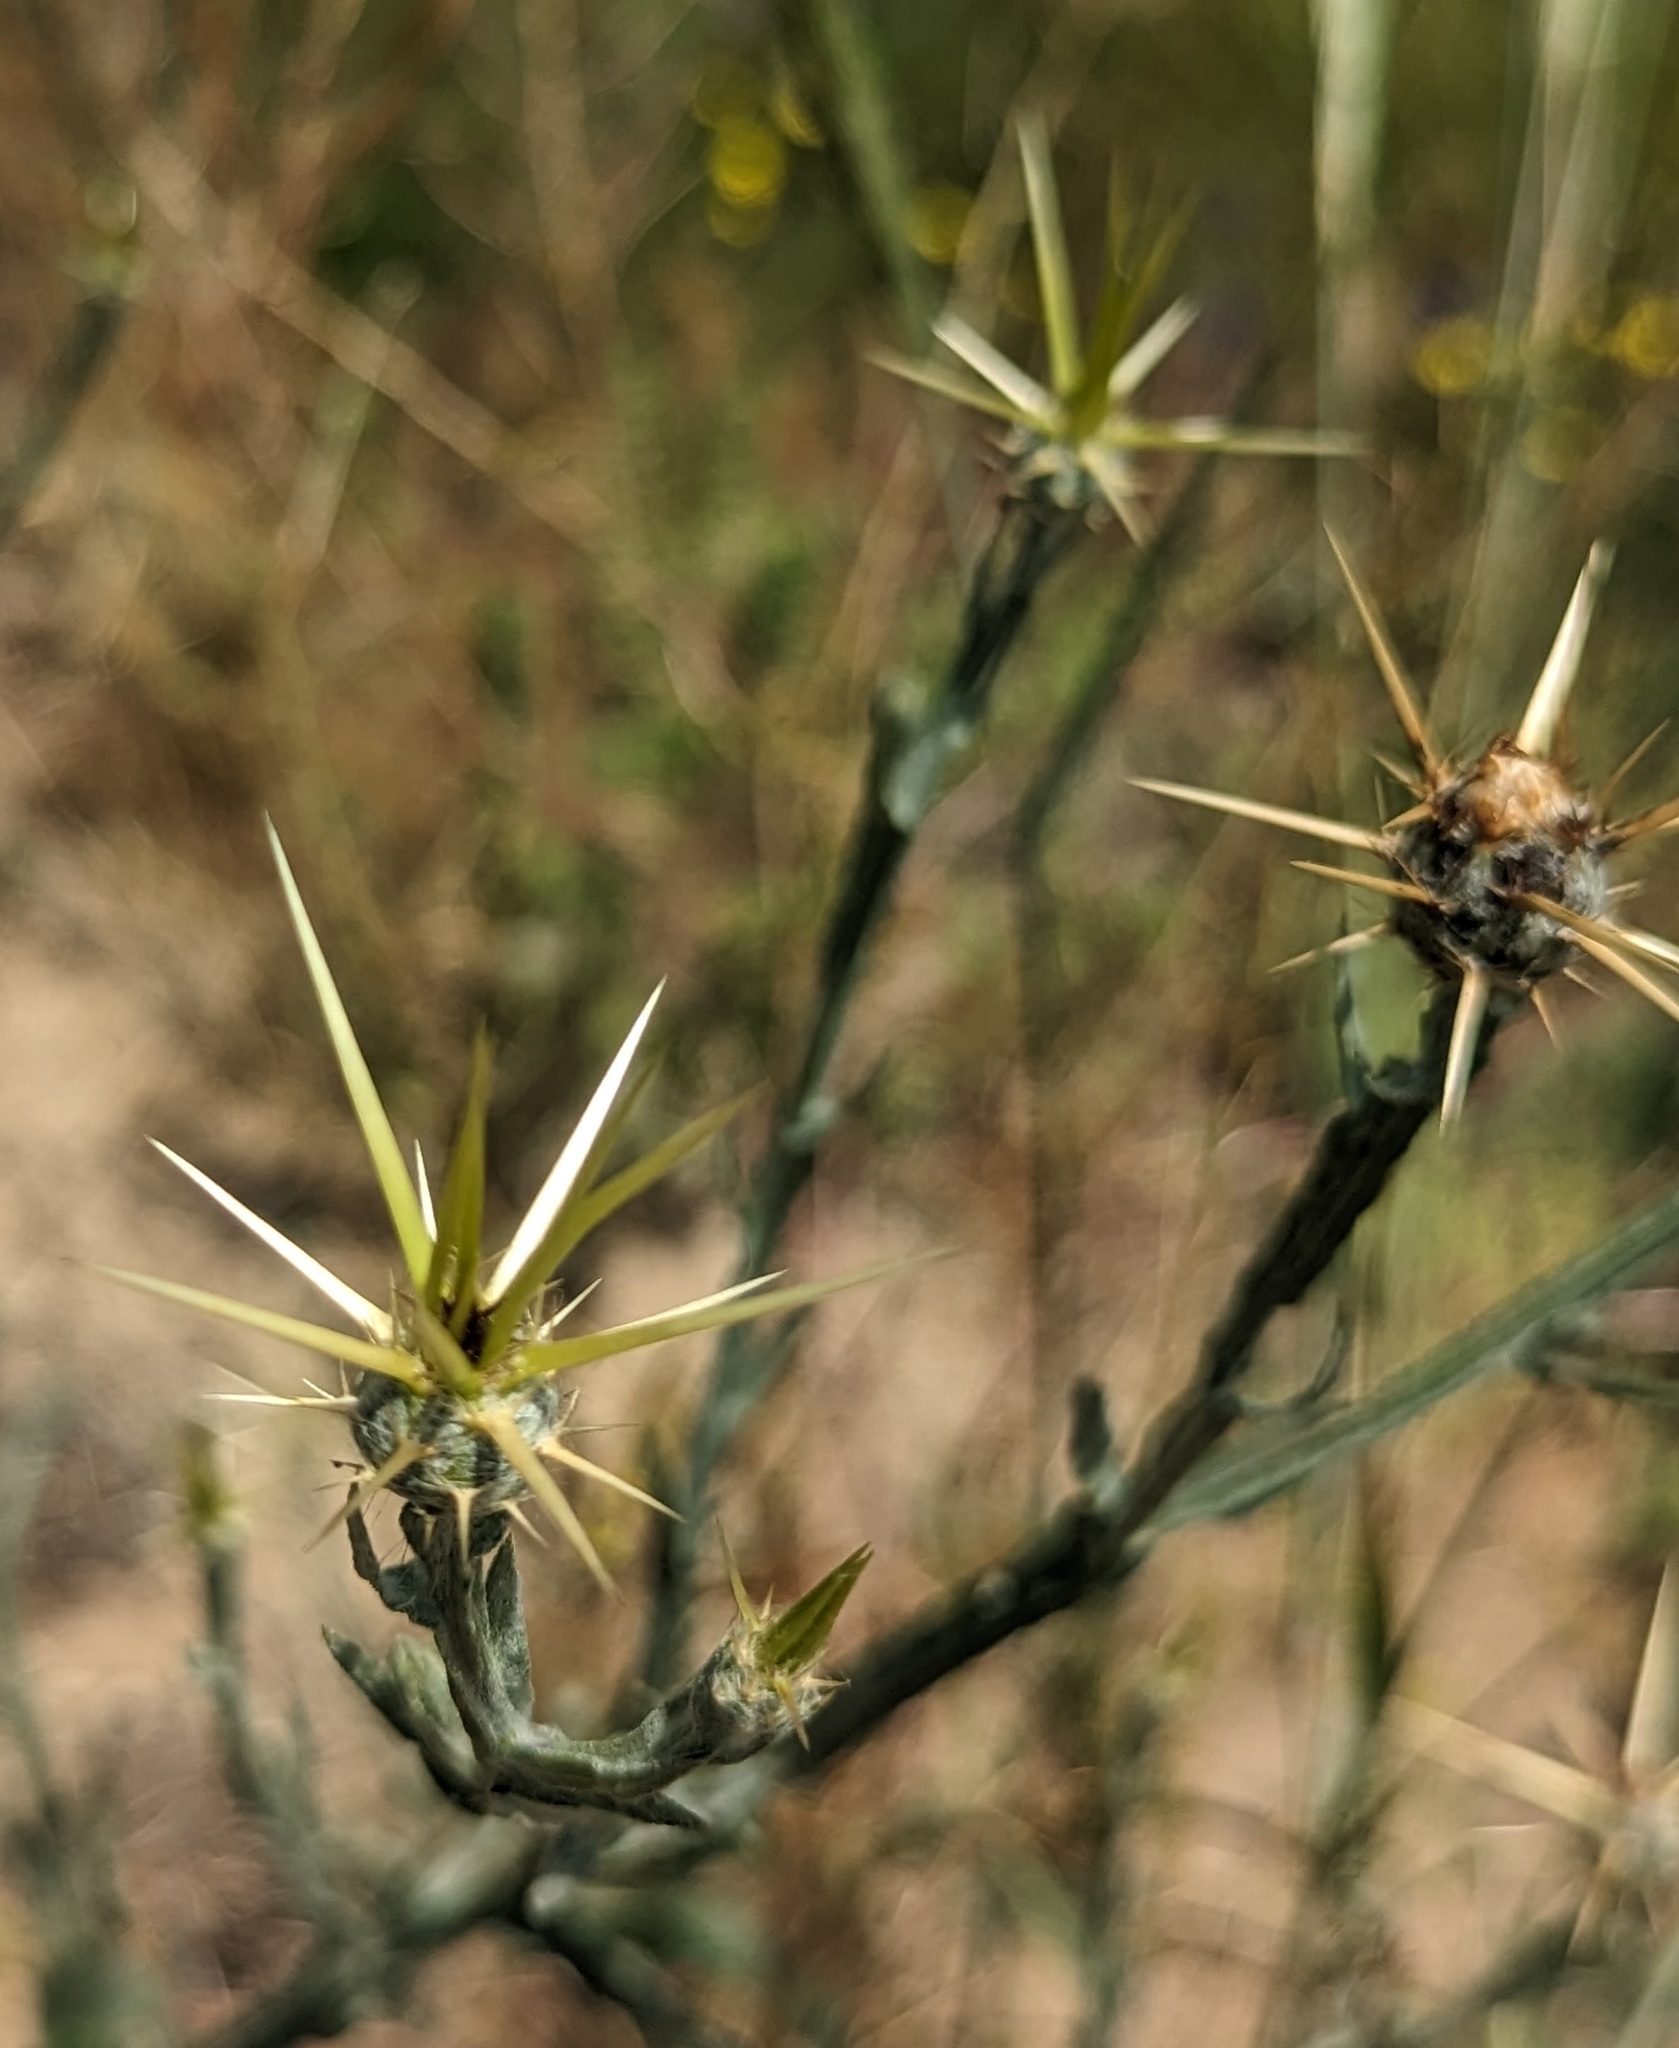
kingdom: Plantae
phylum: Tracheophyta
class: Magnoliopsida
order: Asterales
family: Asteraceae
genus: Centaurea
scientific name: Centaurea solstitialis
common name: Yellow star-thistle
